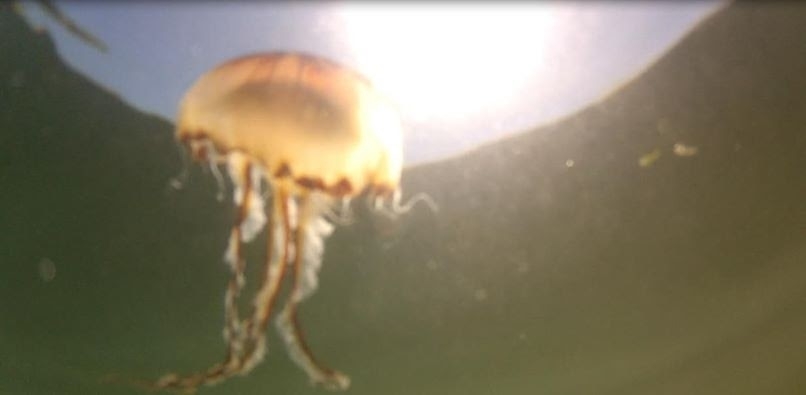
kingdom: Animalia
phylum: Cnidaria
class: Scyphozoa
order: Semaeostomeae
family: Pelagiidae
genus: Chrysaora
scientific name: Chrysaora hysoscella
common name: Compass jellyfish
